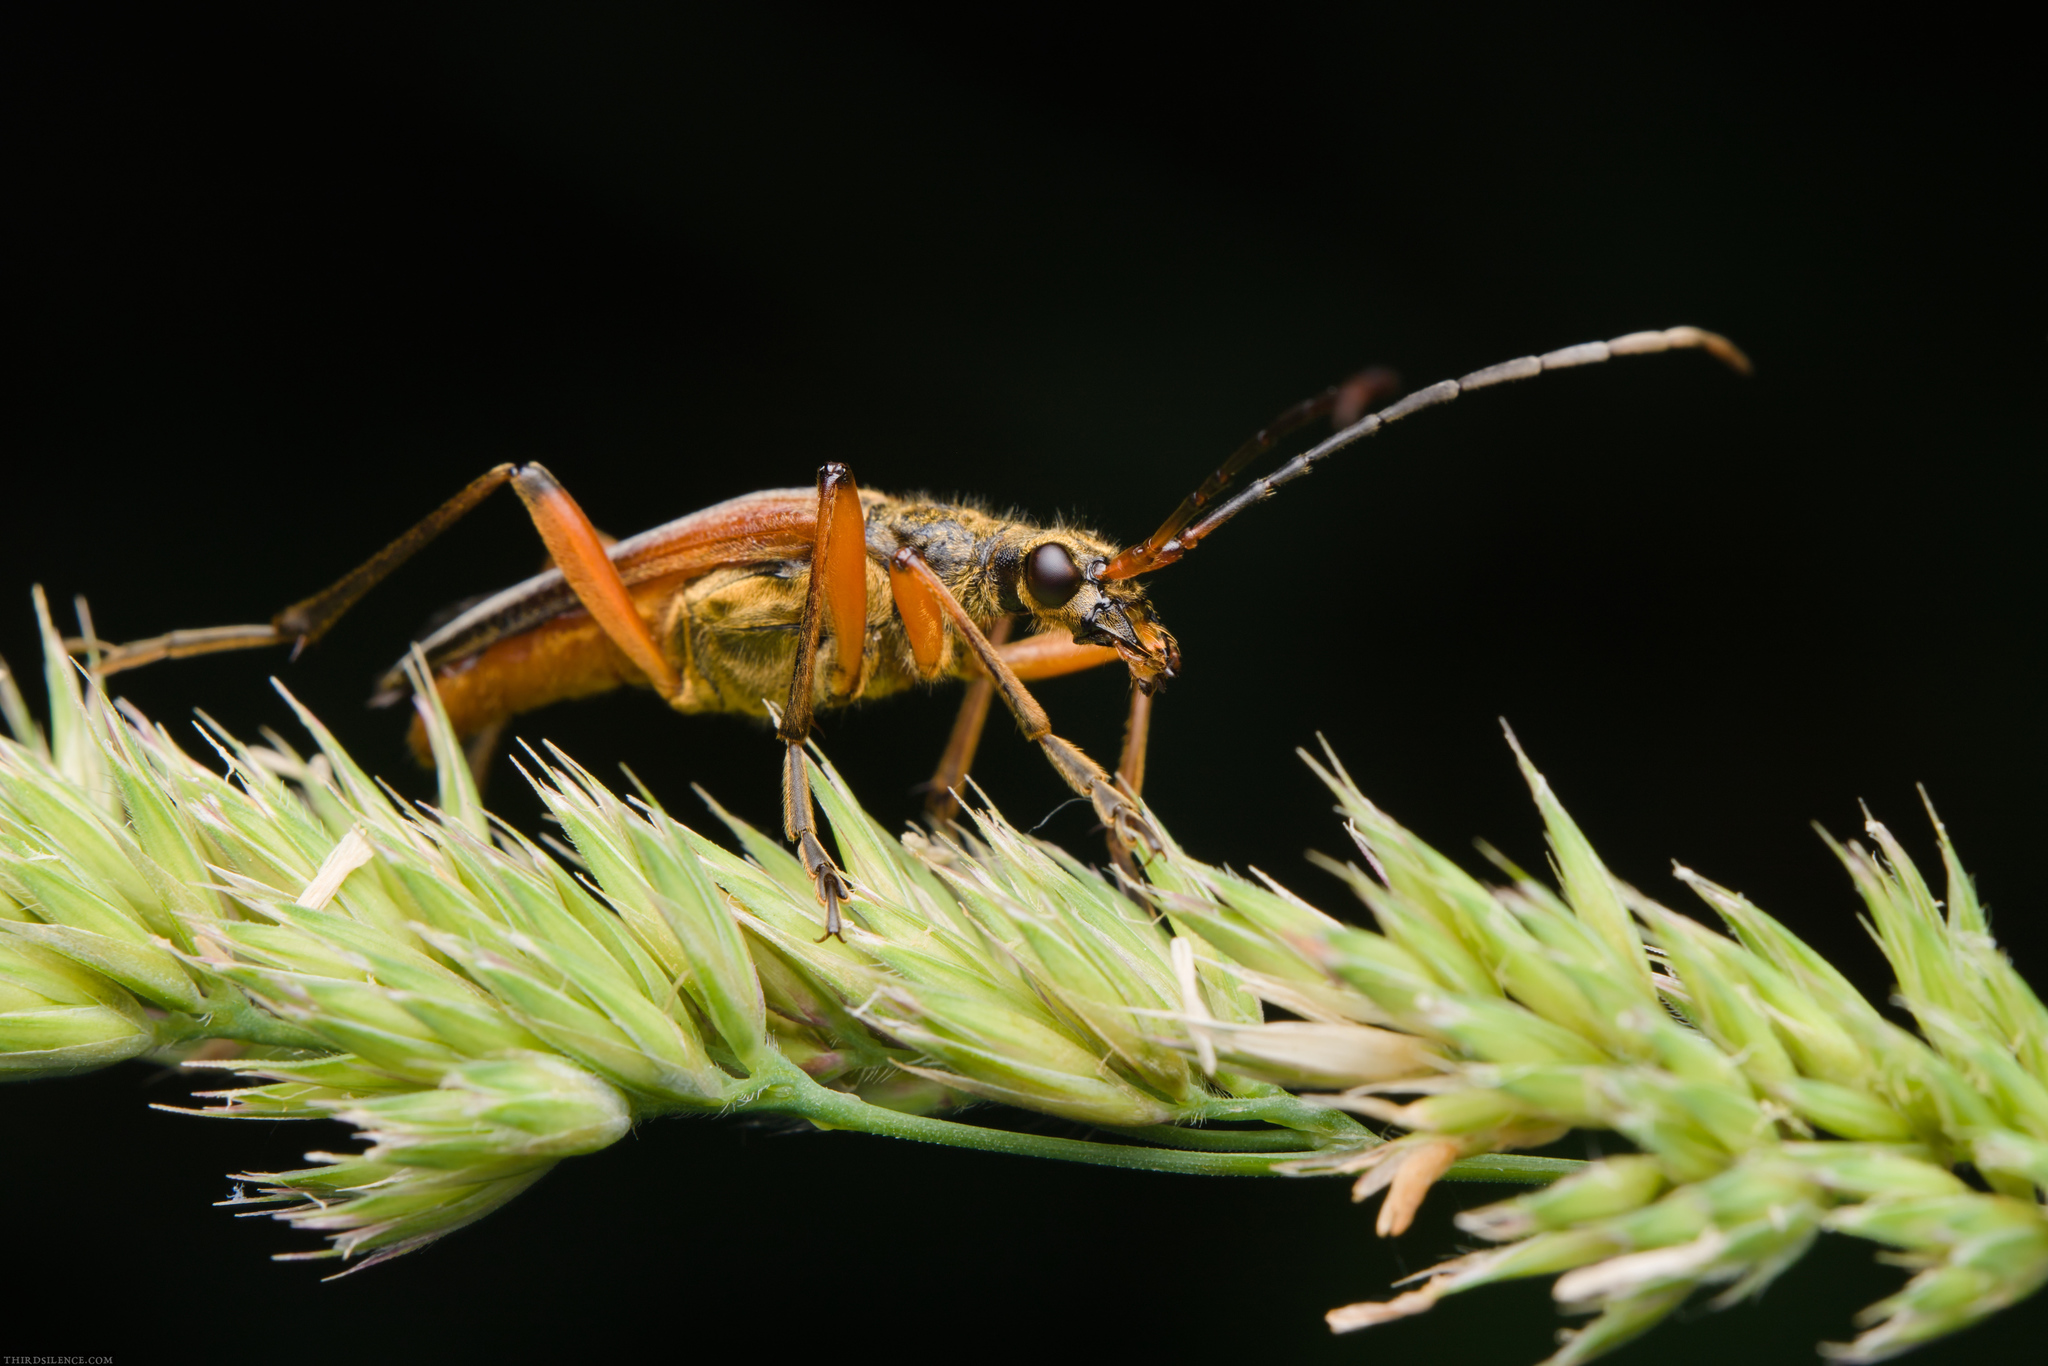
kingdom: Animalia
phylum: Arthropoda
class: Insecta
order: Coleoptera
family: Cerambycidae
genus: Stenocorus
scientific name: Stenocorus meridianus
